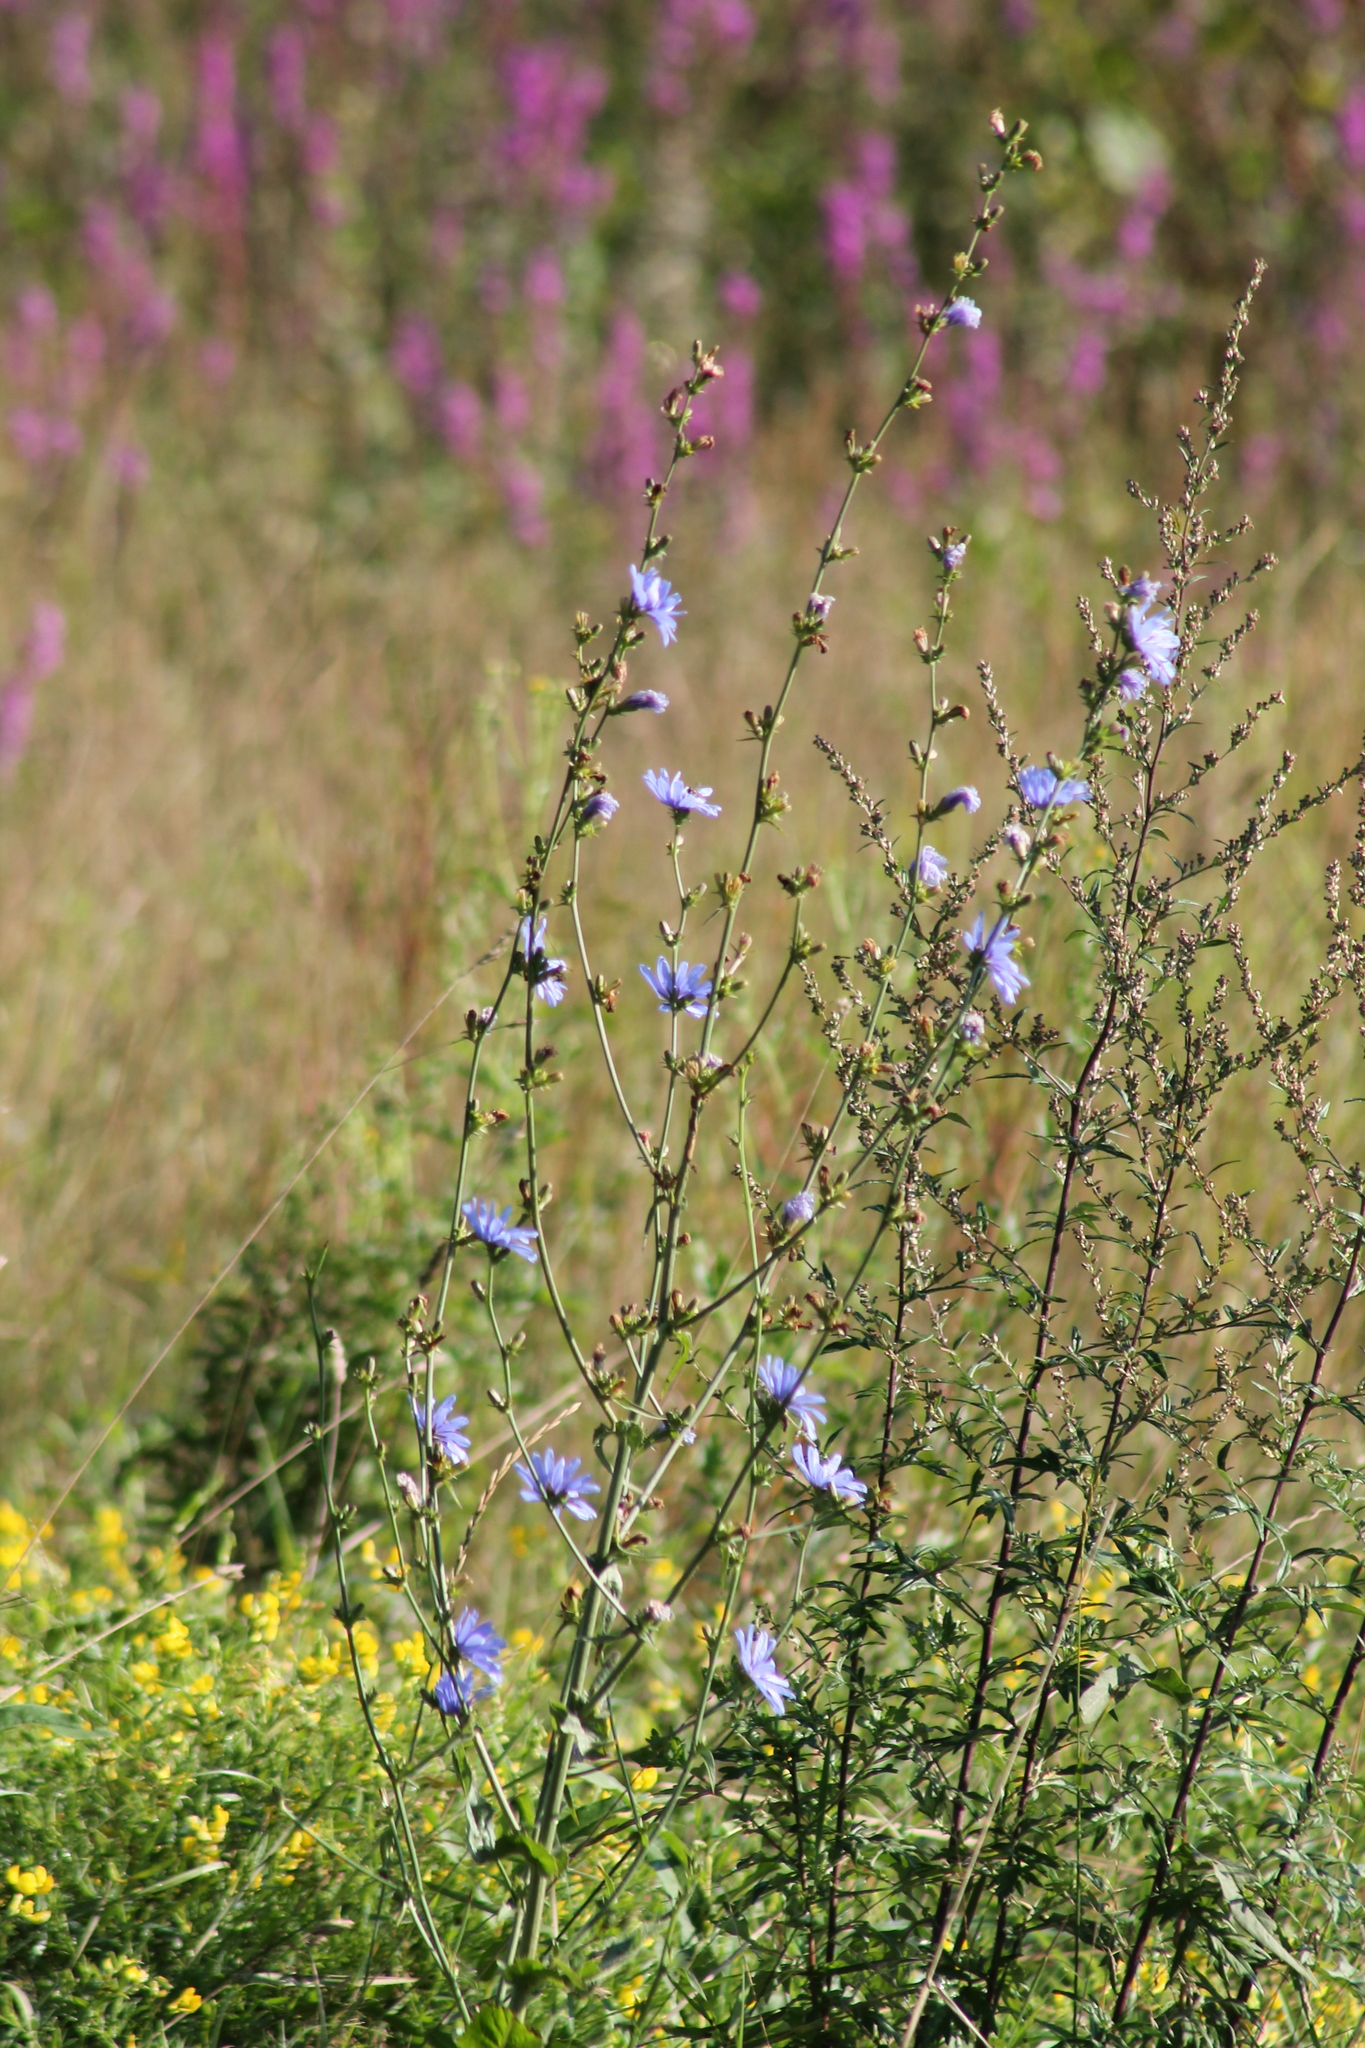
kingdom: Plantae
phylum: Tracheophyta
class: Magnoliopsida
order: Asterales
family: Asteraceae
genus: Cichorium
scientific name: Cichorium intybus
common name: Chicory
